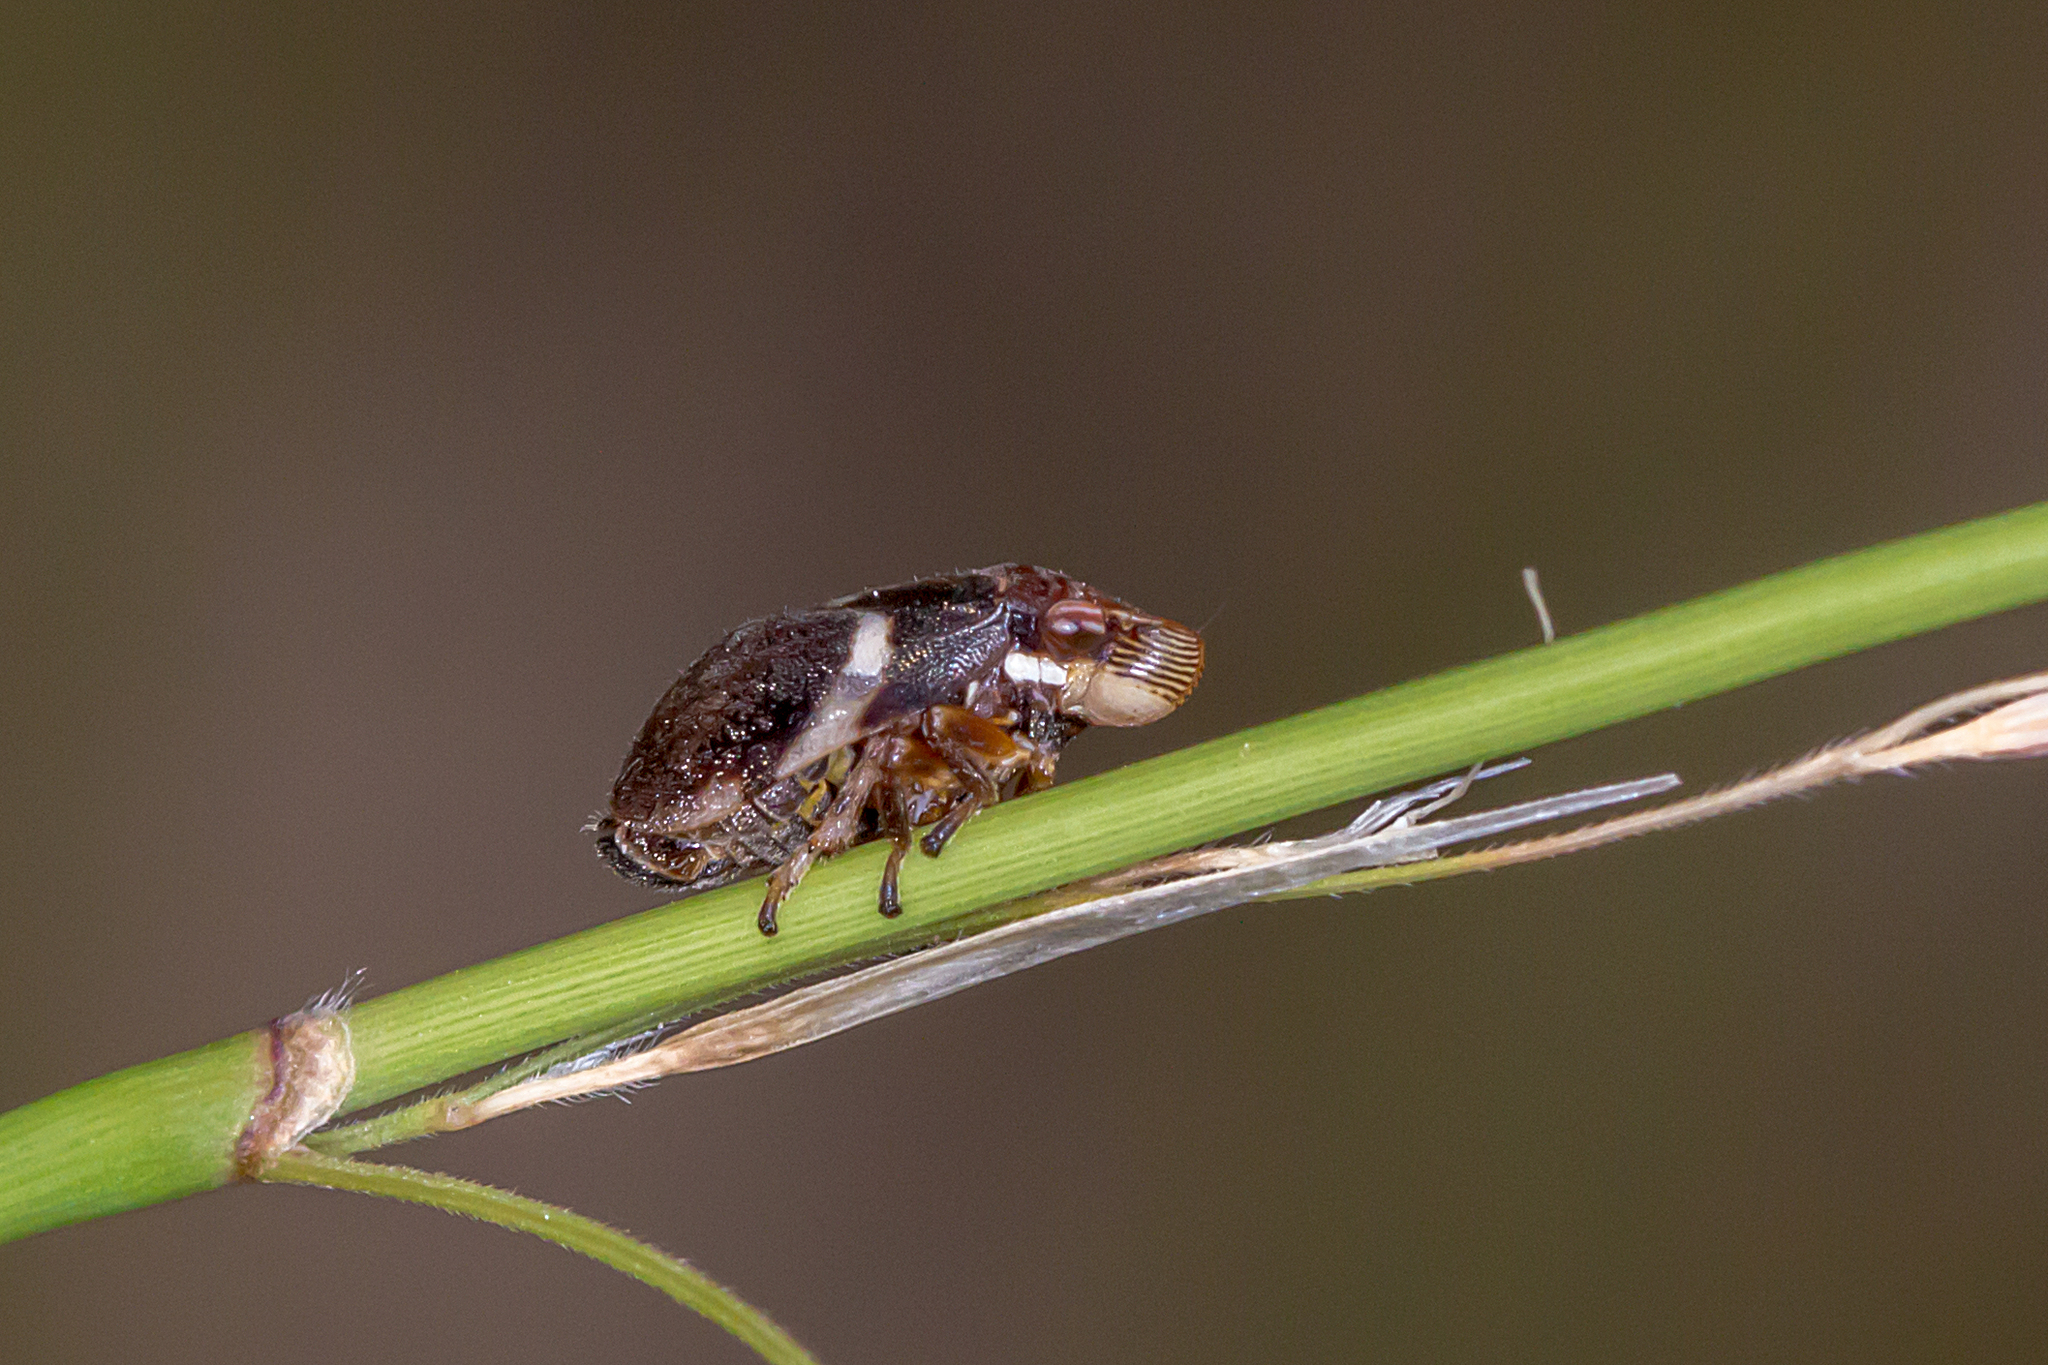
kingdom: Animalia
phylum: Arthropoda
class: Insecta
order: Hemiptera
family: Aphrophoridae
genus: Bathyllus
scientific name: Bathyllus albicinctus
